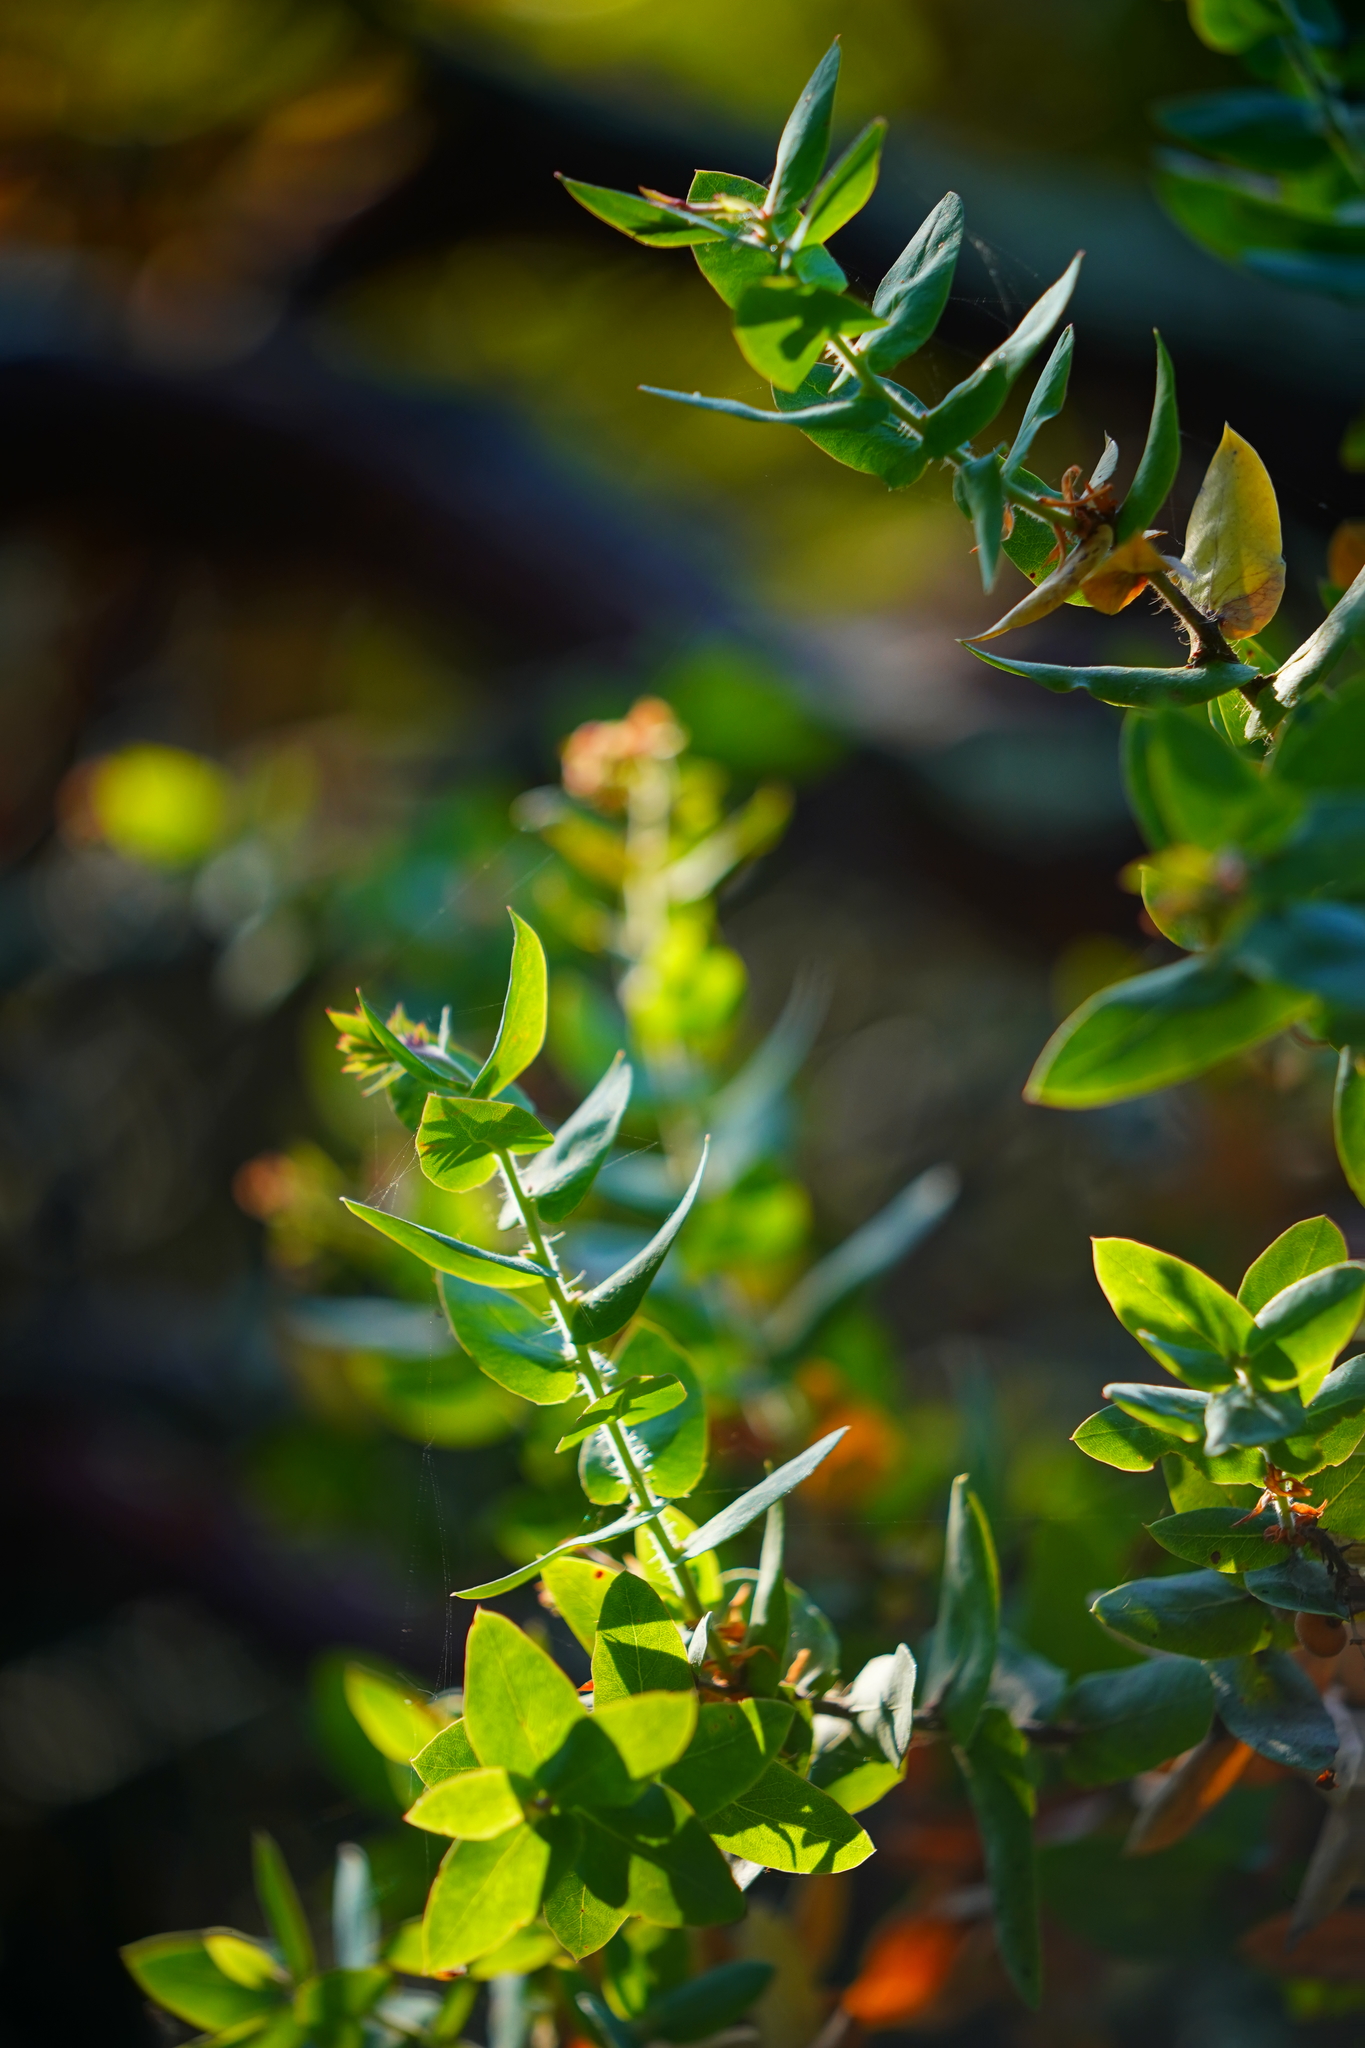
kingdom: Plantae
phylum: Tracheophyta
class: Magnoliopsida
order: Ericales
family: Ericaceae
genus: Arctostaphylos
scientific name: Arctostaphylos pallida
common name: Pallid manzanita
